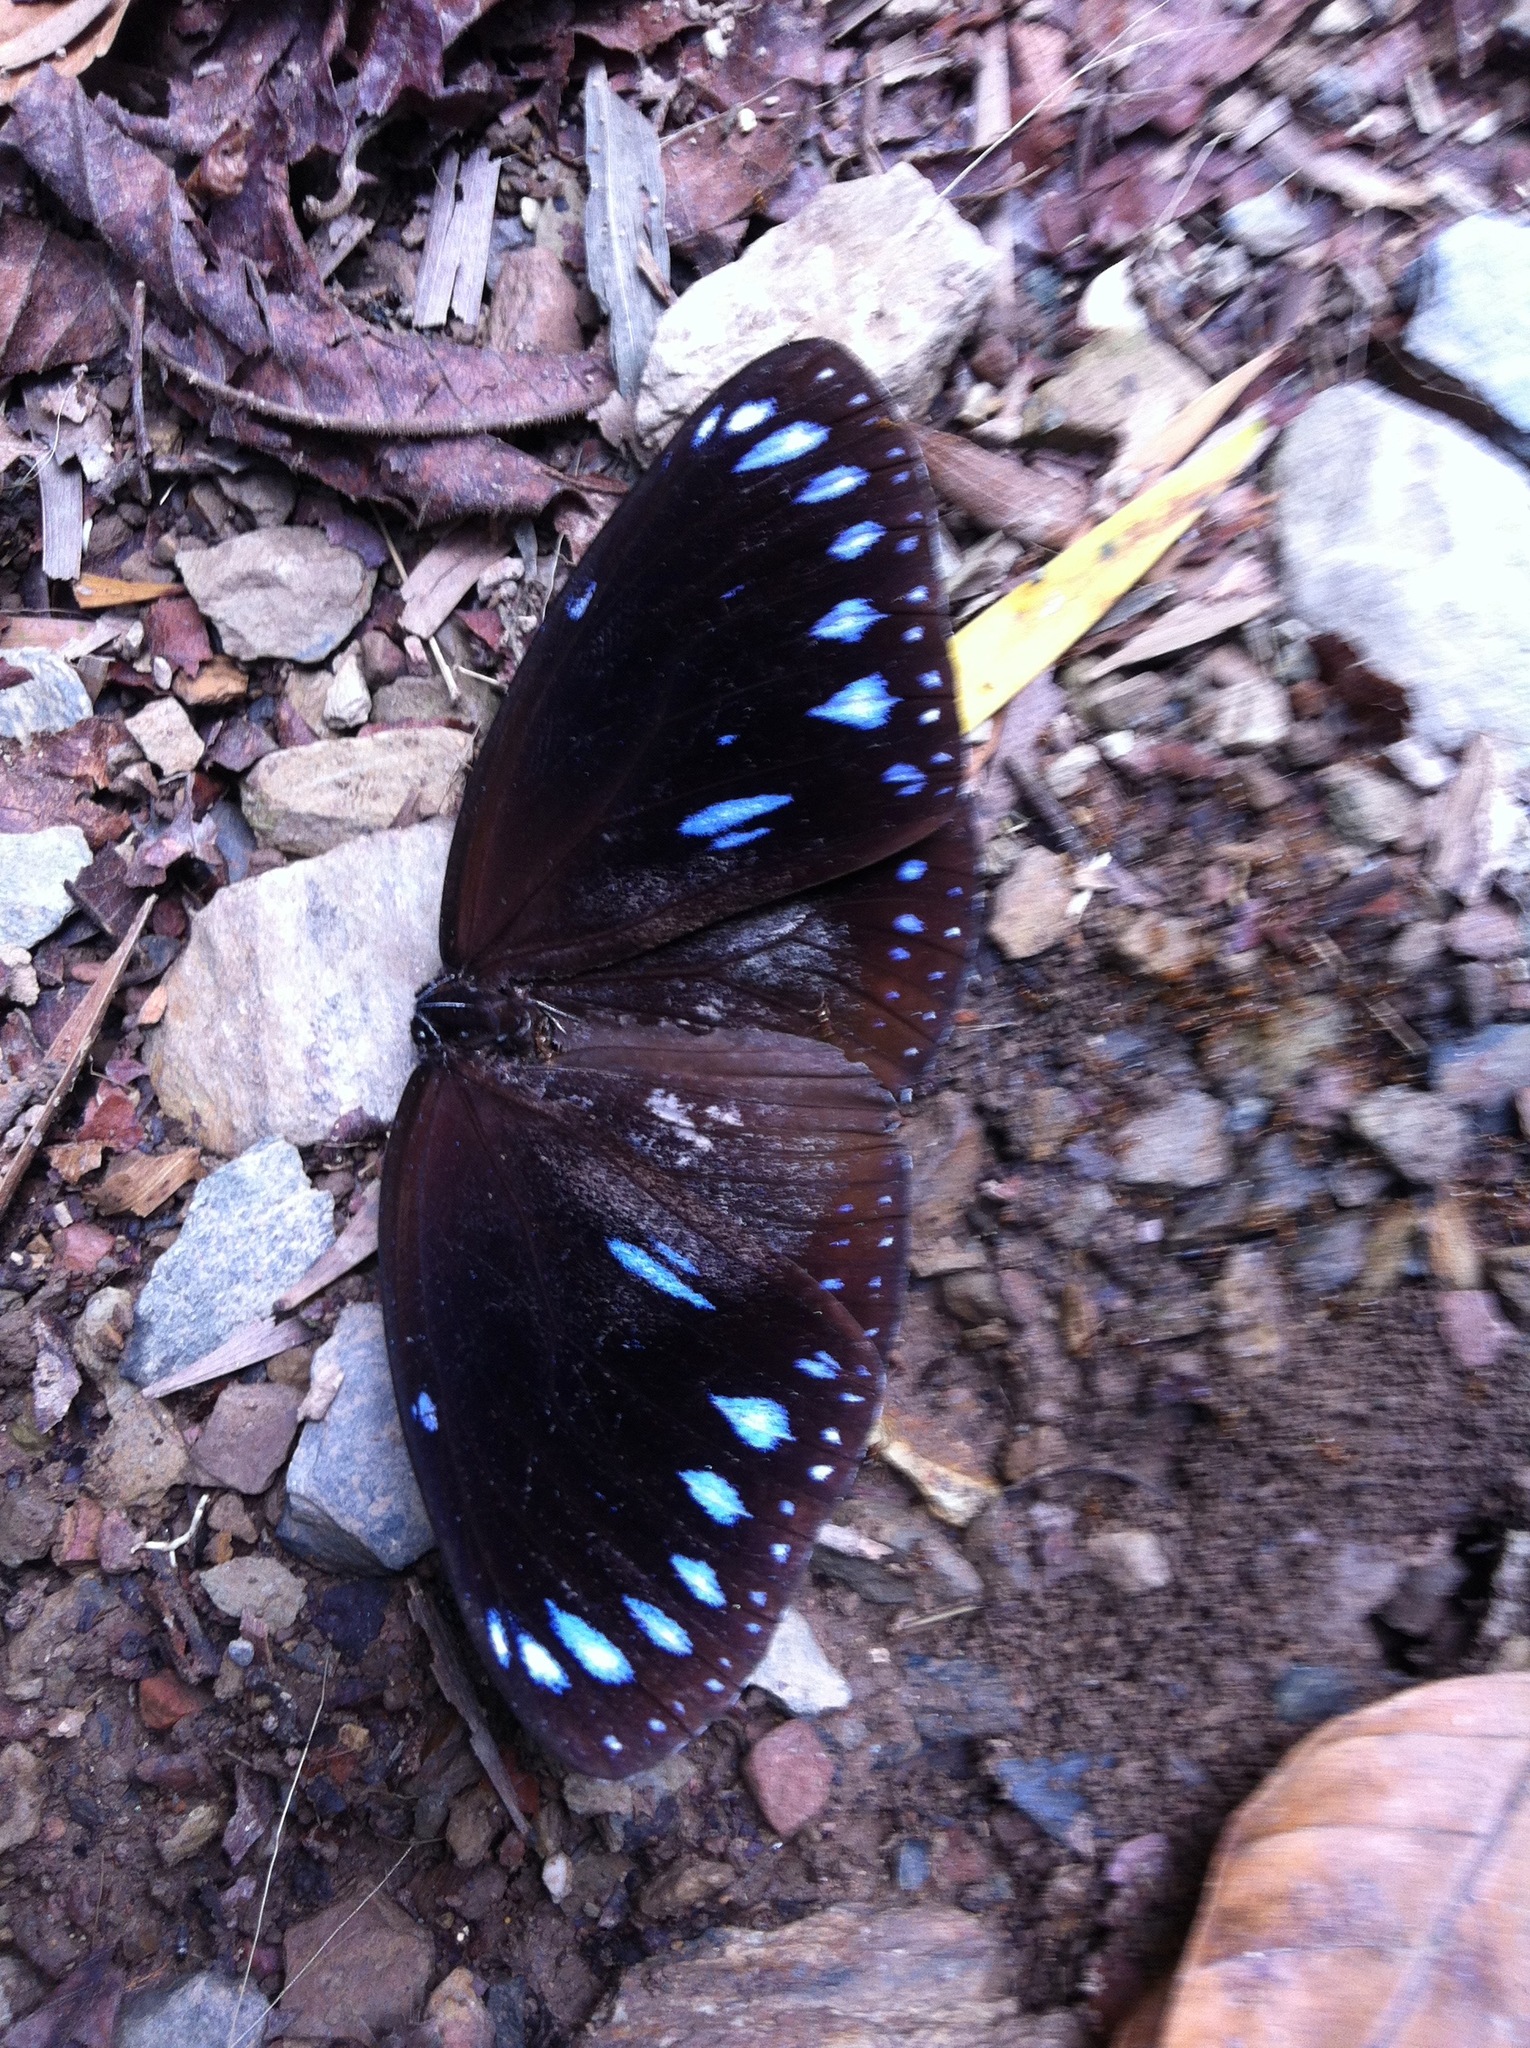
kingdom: Animalia
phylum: Arthropoda
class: Insecta
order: Lepidoptera
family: Nymphalidae
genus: Euploea
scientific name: Euploea eunice
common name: Blue-banded king crow butterfly
